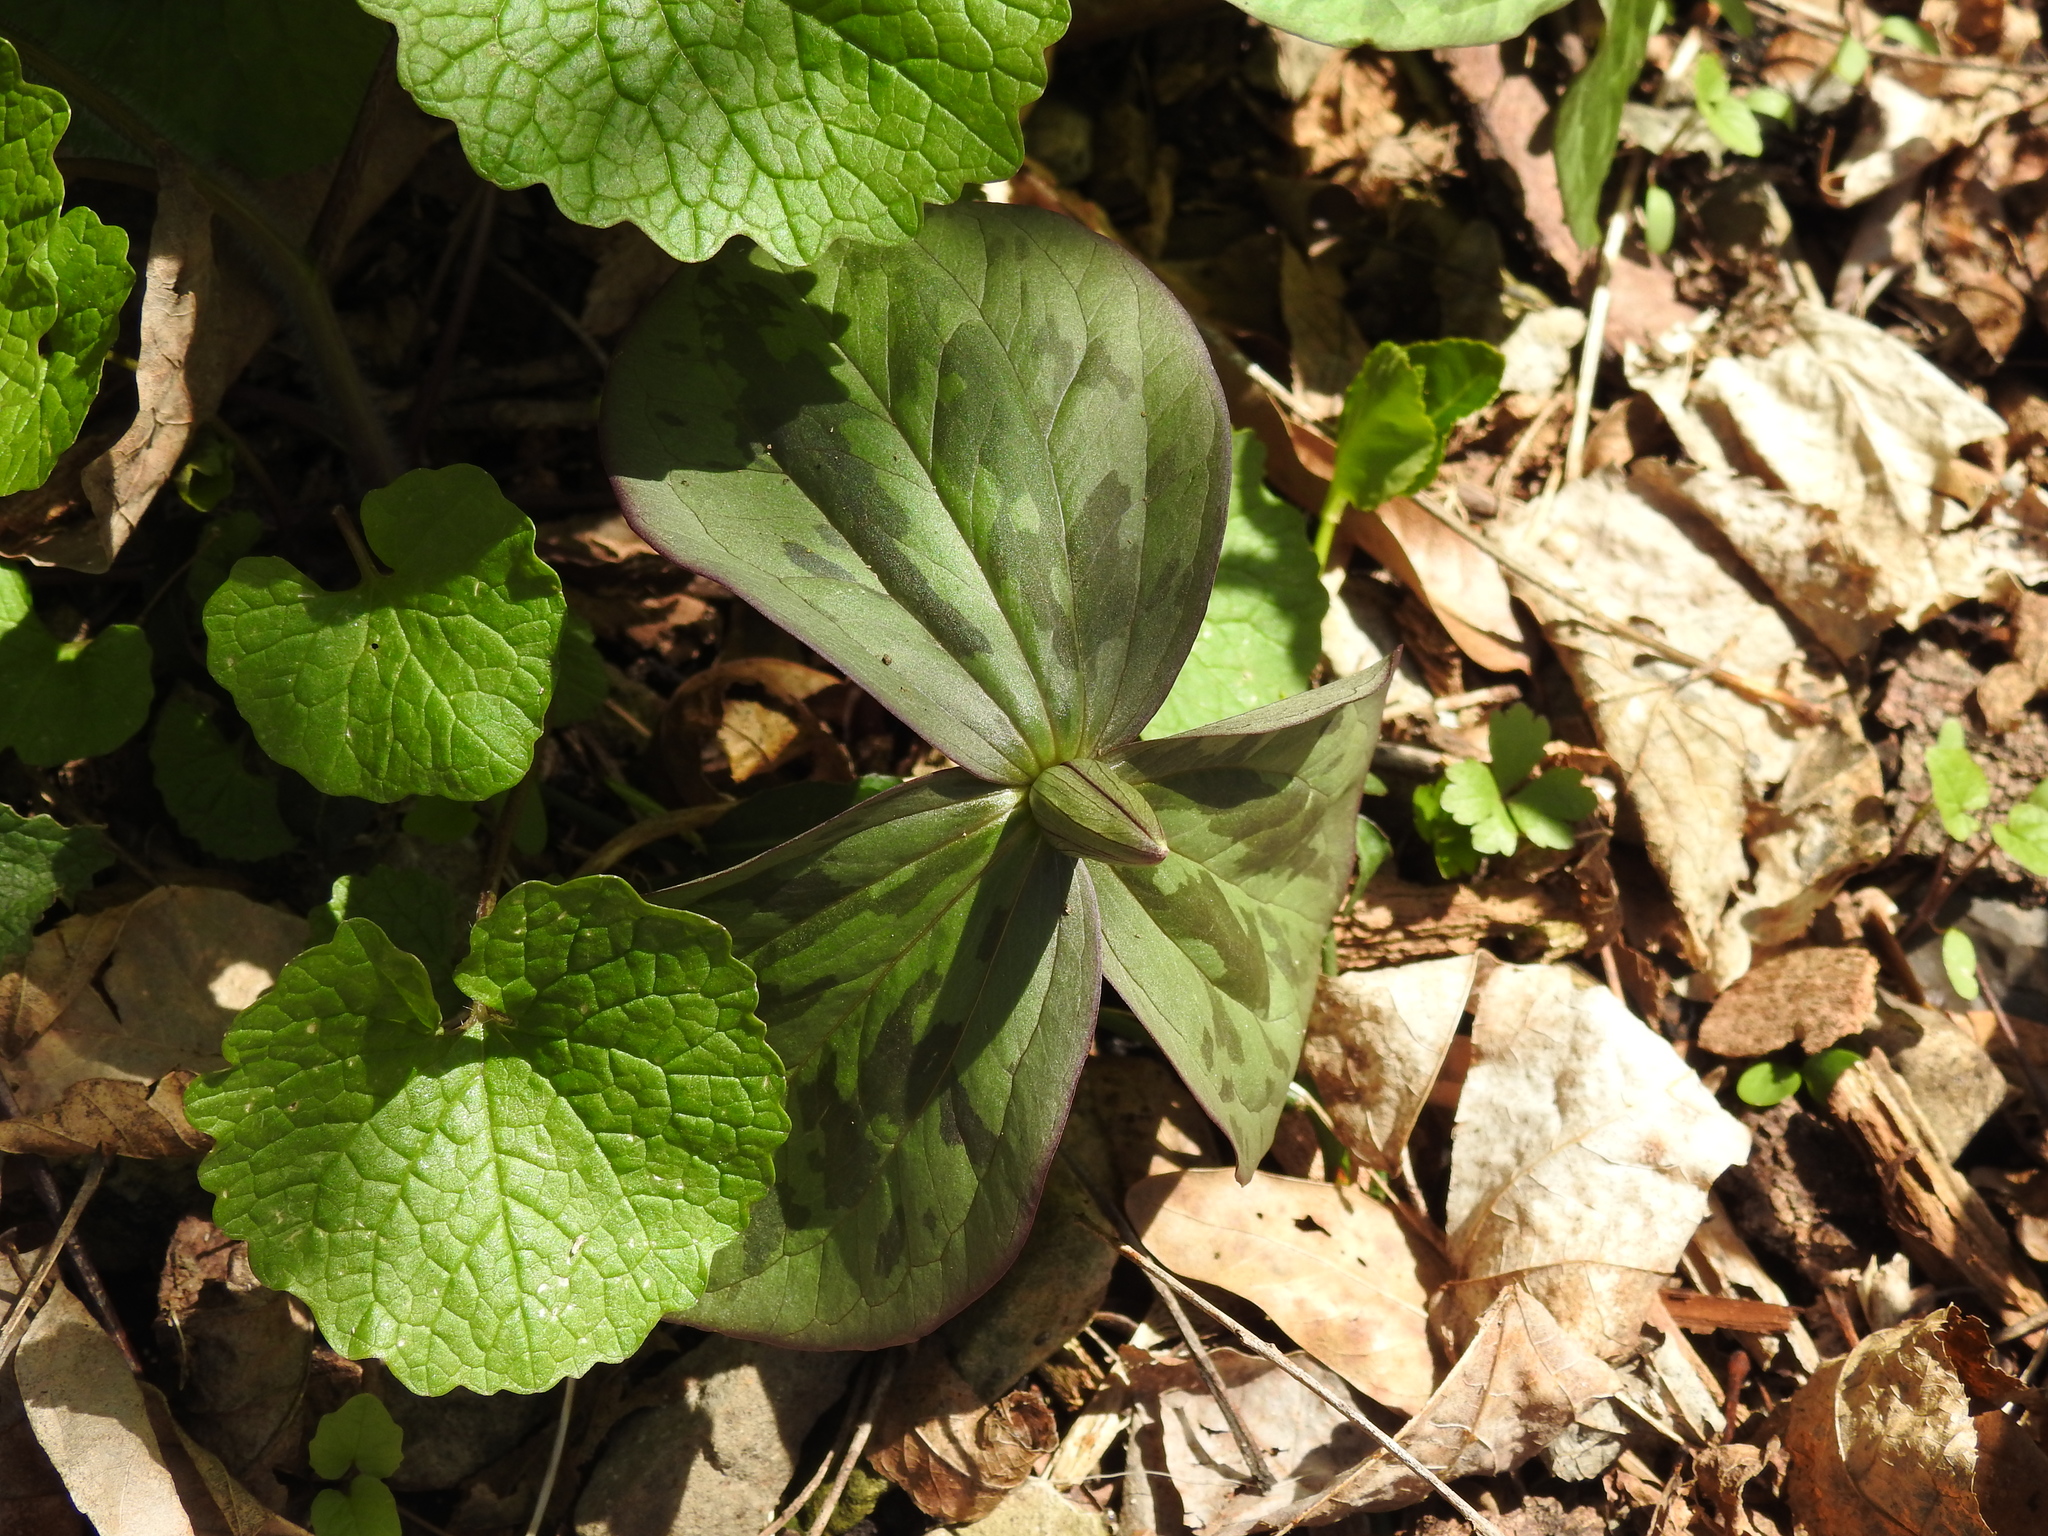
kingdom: Plantae
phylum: Tracheophyta
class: Liliopsida
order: Liliales
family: Melanthiaceae
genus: Trillium
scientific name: Trillium sessile
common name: Sessile trillium
